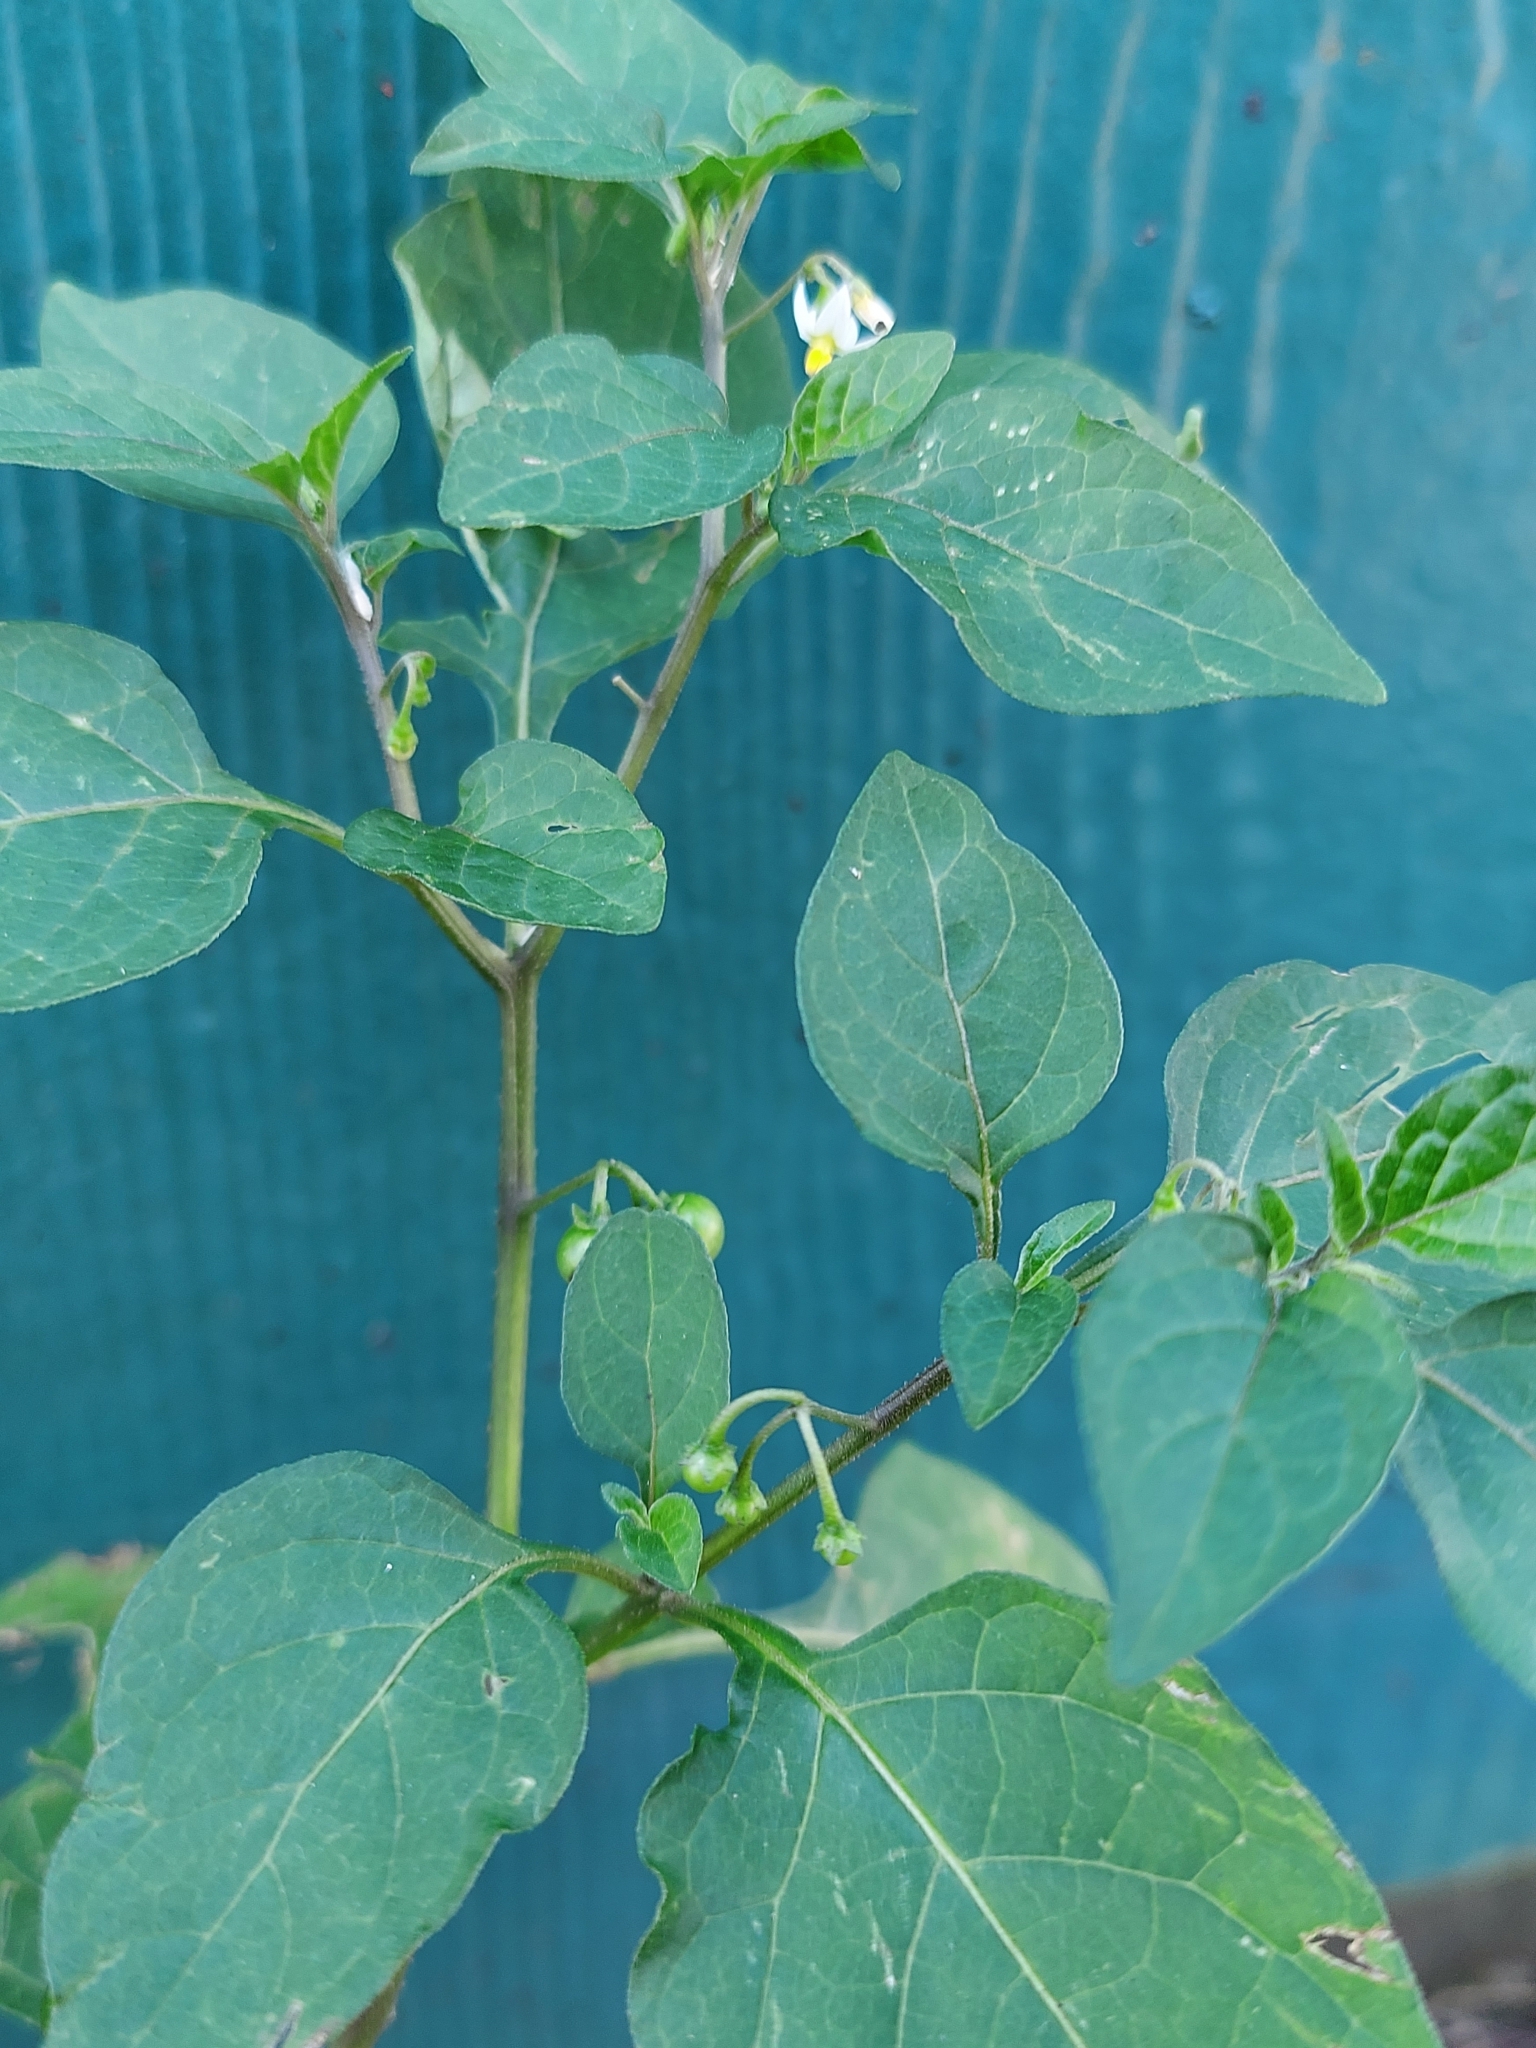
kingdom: Plantae
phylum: Tracheophyta
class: Magnoliopsida
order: Solanales
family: Solanaceae
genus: Solanum
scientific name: Solanum americanum
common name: American black nightshade
